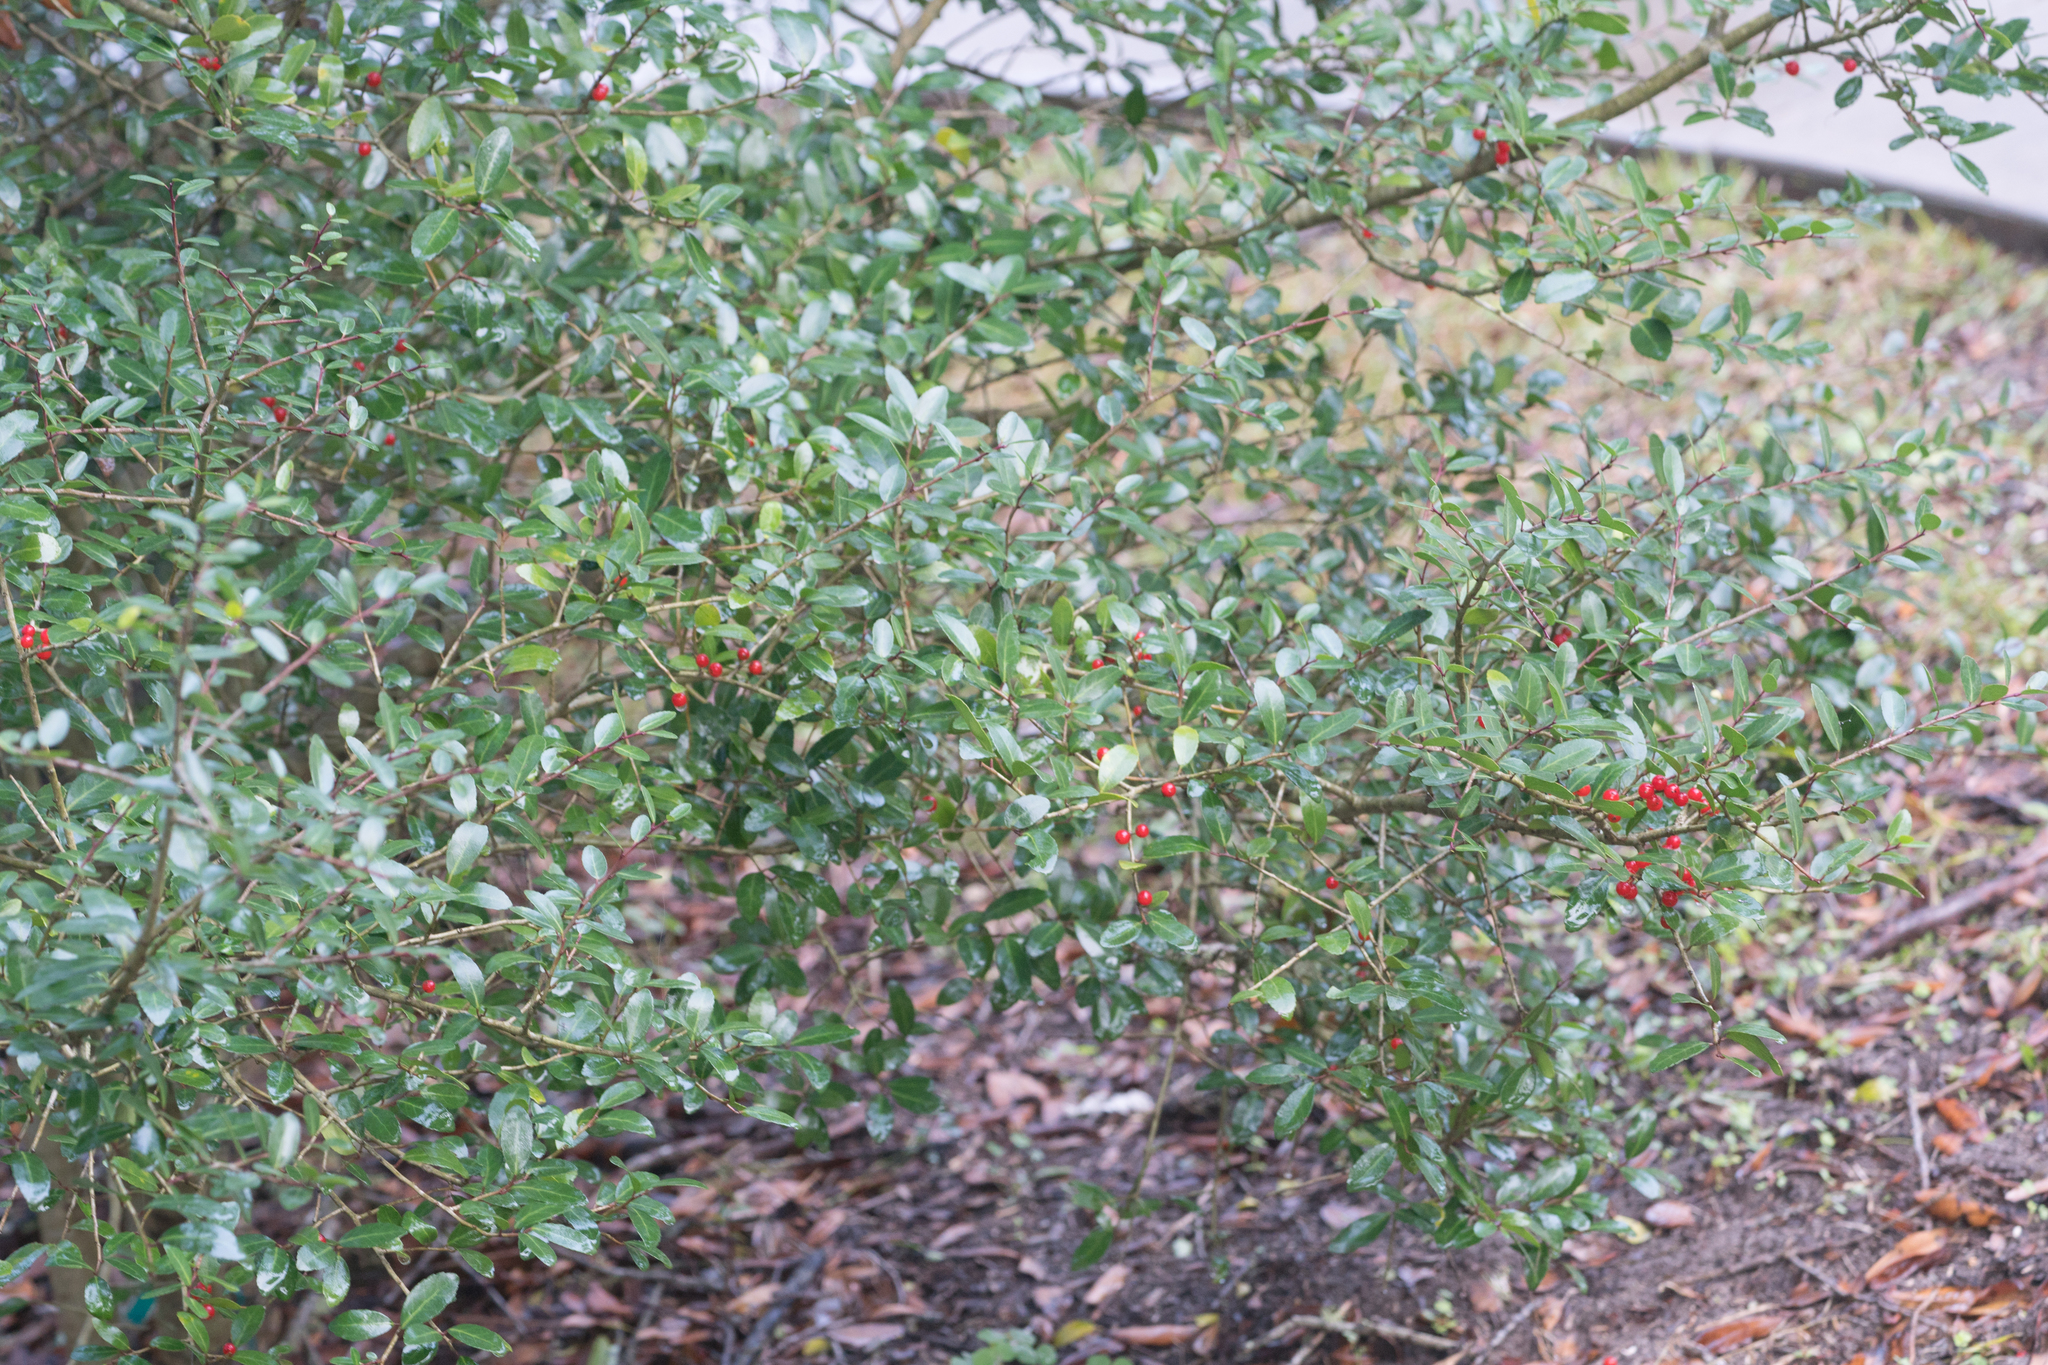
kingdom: Plantae
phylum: Tracheophyta
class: Magnoliopsida
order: Aquifoliales
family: Aquifoliaceae
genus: Ilex
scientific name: Ilex vomitoria
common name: Yaupon holly
